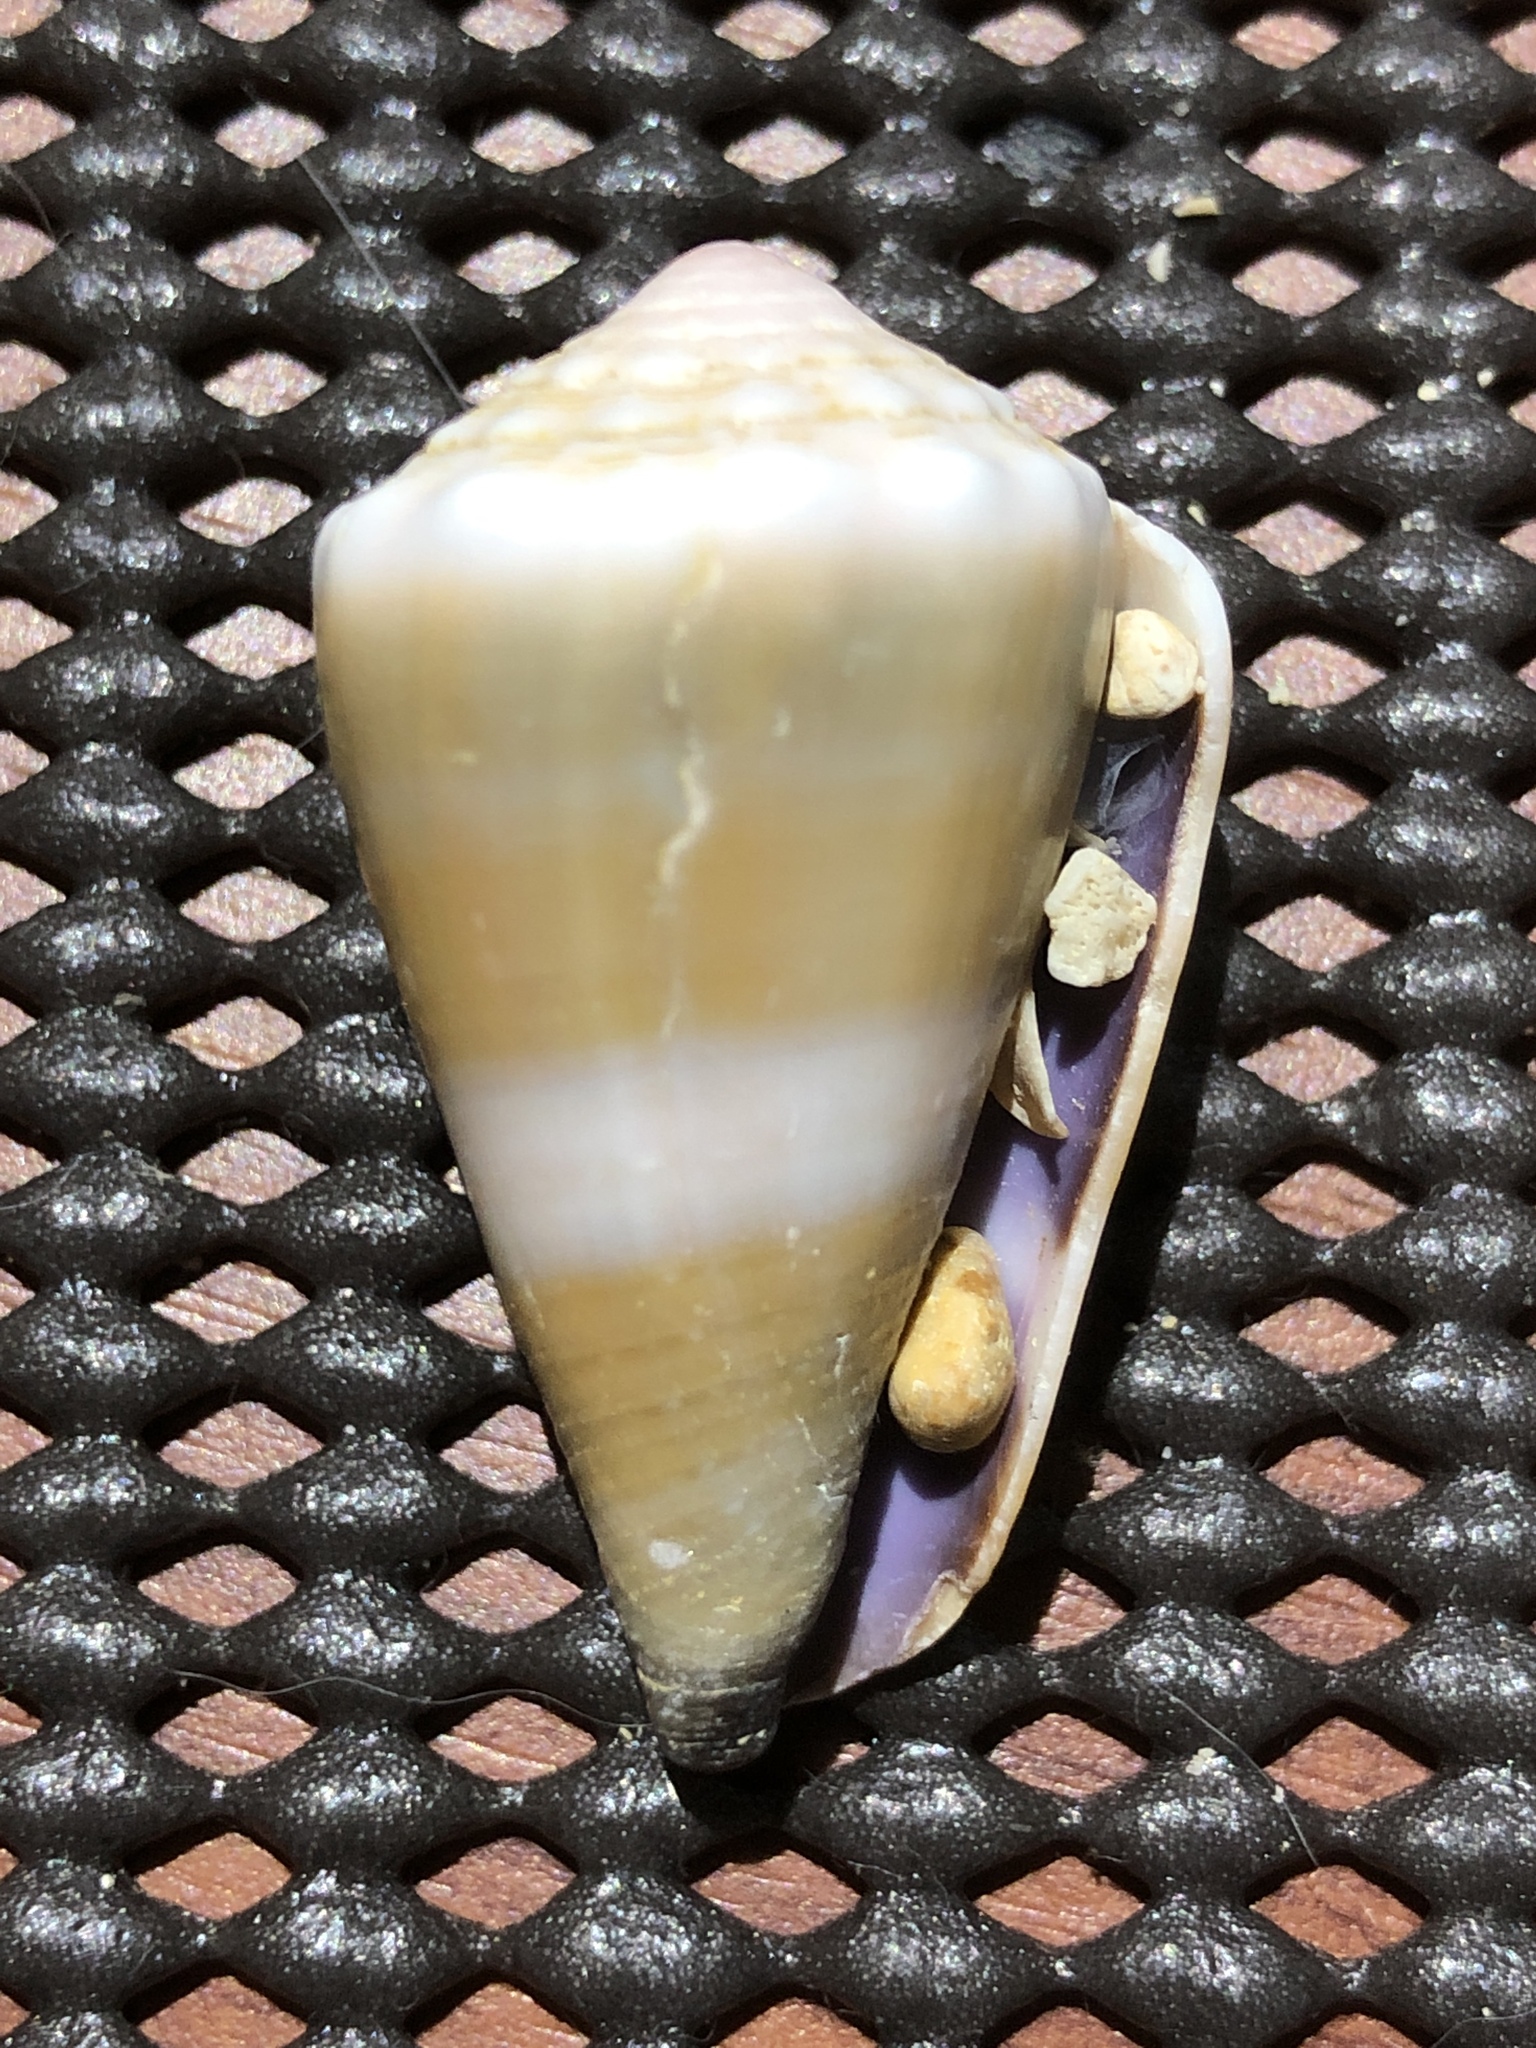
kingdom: Animalia
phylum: Mollusca
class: Gastropoda
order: Neogastropoda
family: Conidae
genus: Conus
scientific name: Conus lividus
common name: Livid cone
